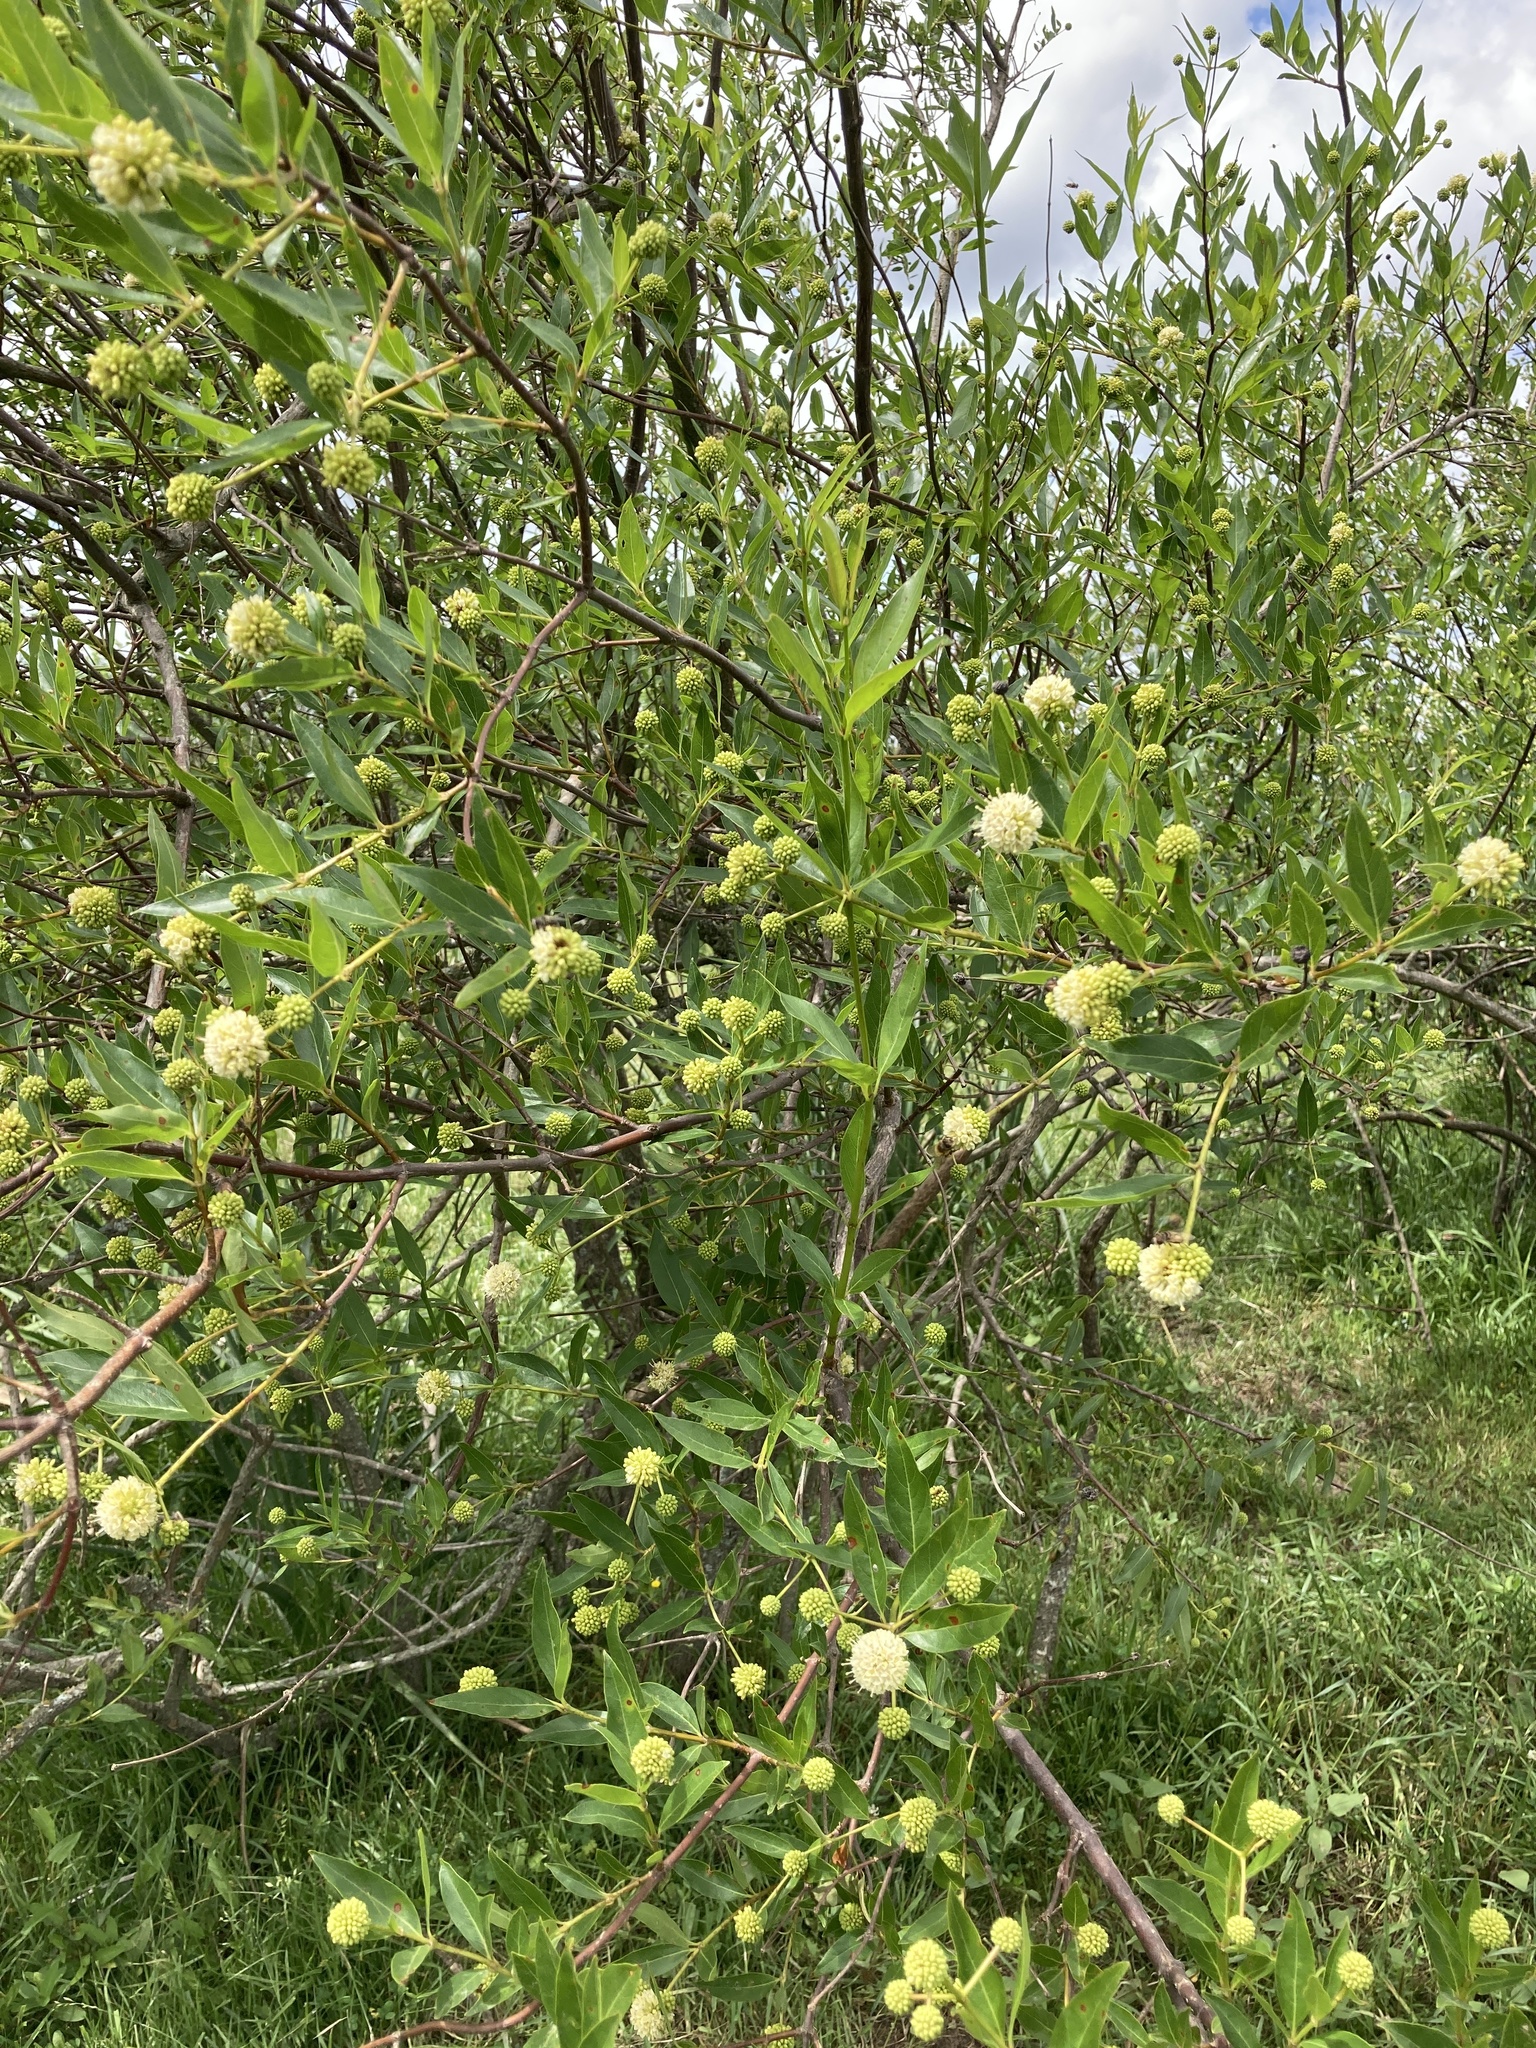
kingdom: Plantae
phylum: Tracheophyta
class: Magnoliopsida
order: Gentianales
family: Rubiaceae
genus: Cephalanthus
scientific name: Cephalanthus glabratus
